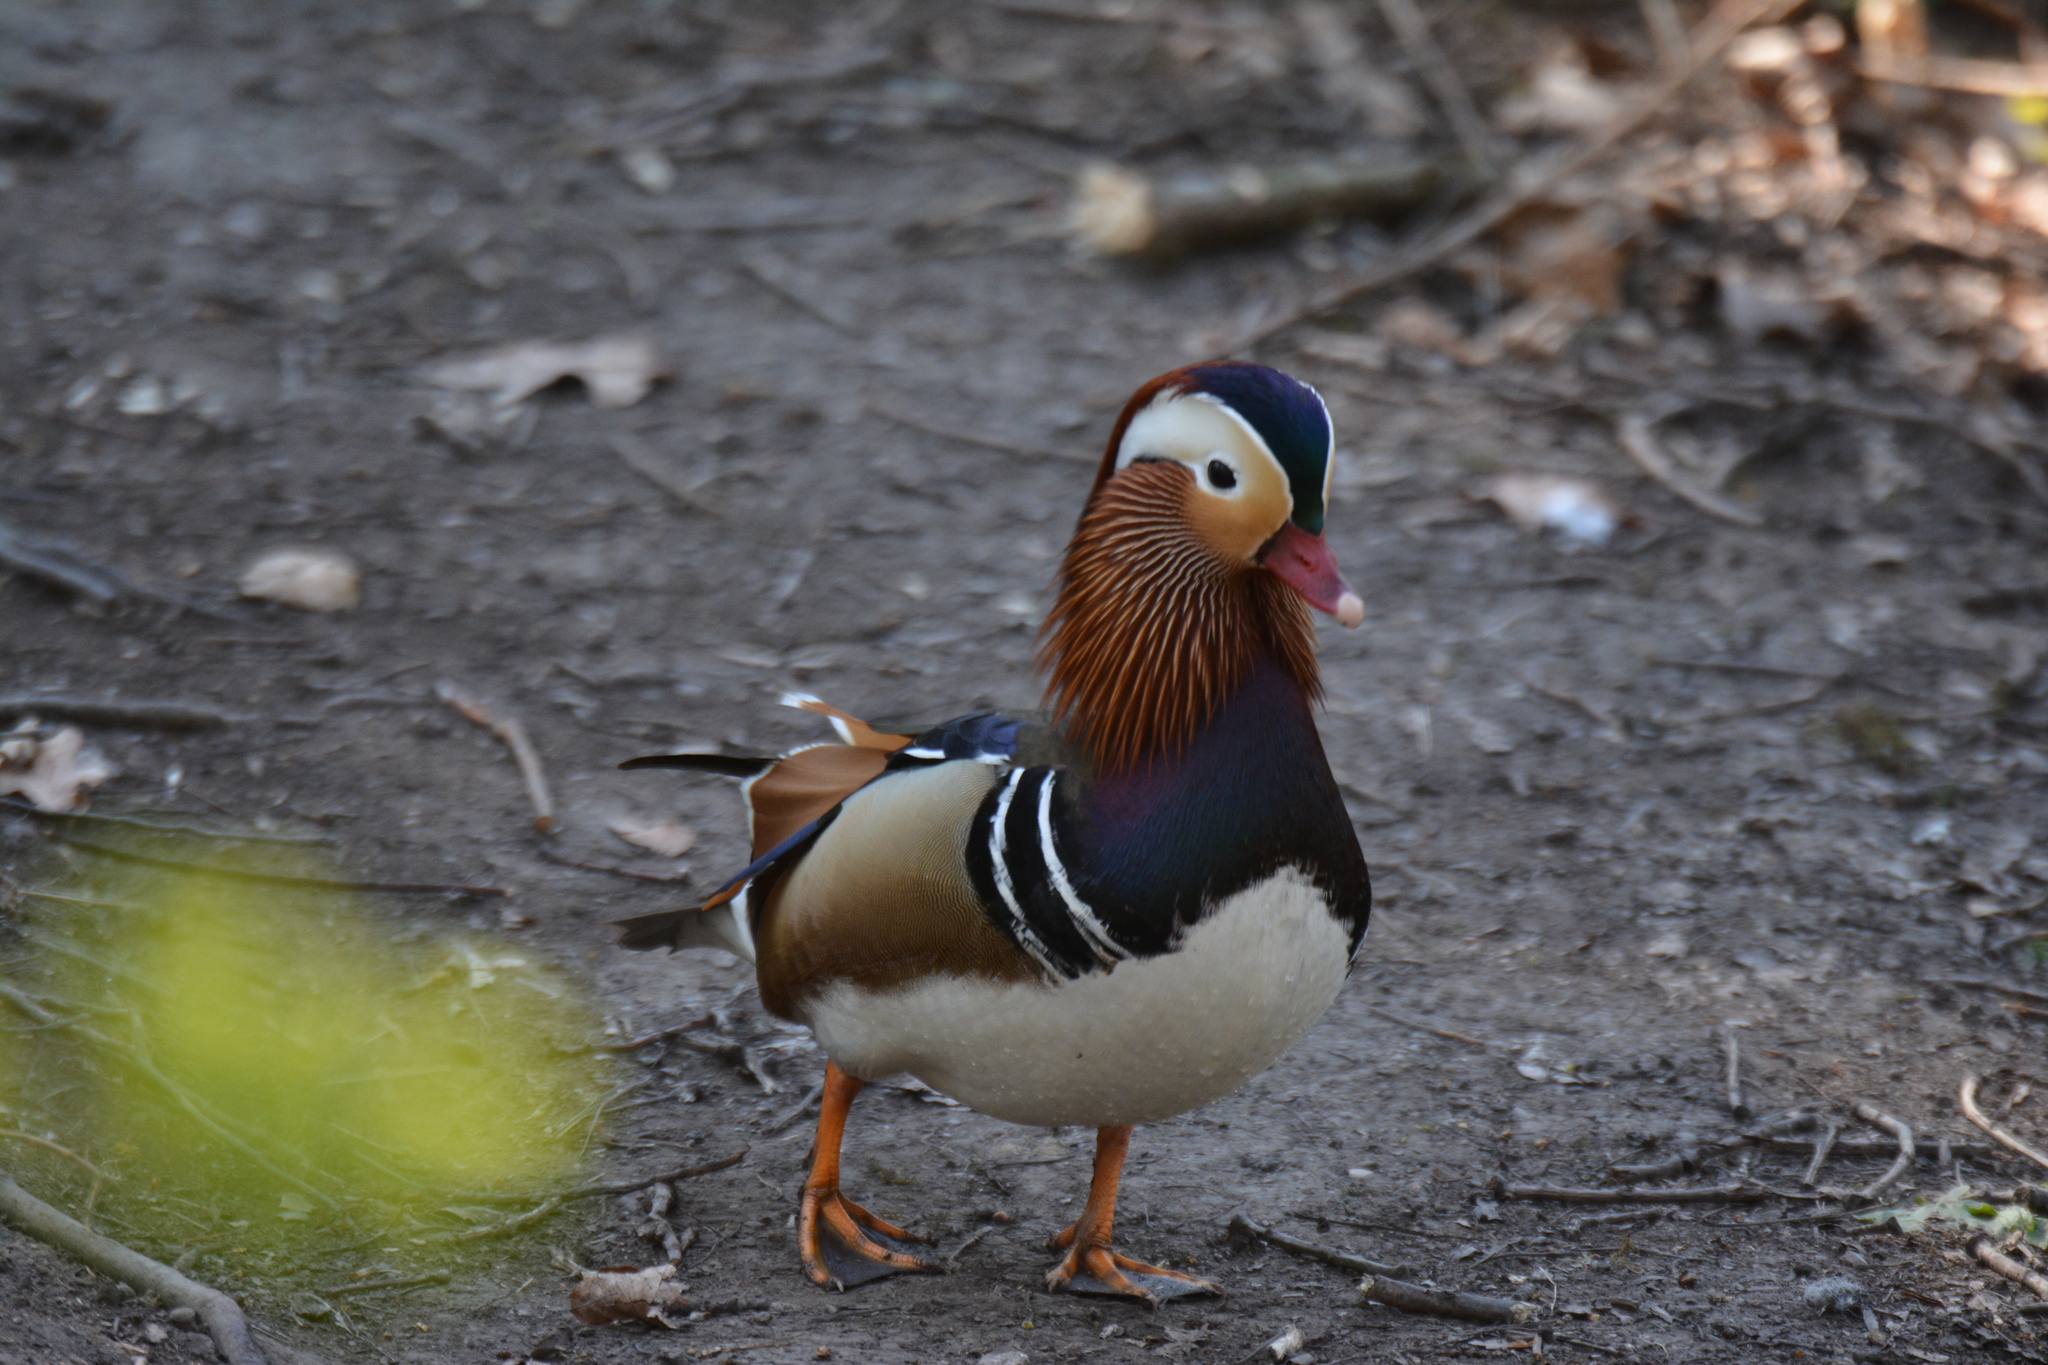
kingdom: Animalia
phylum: Chordata
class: Aves
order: Anseriformes
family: Anatidae
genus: Aix
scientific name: Aix galericulata
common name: Mandarin duck
